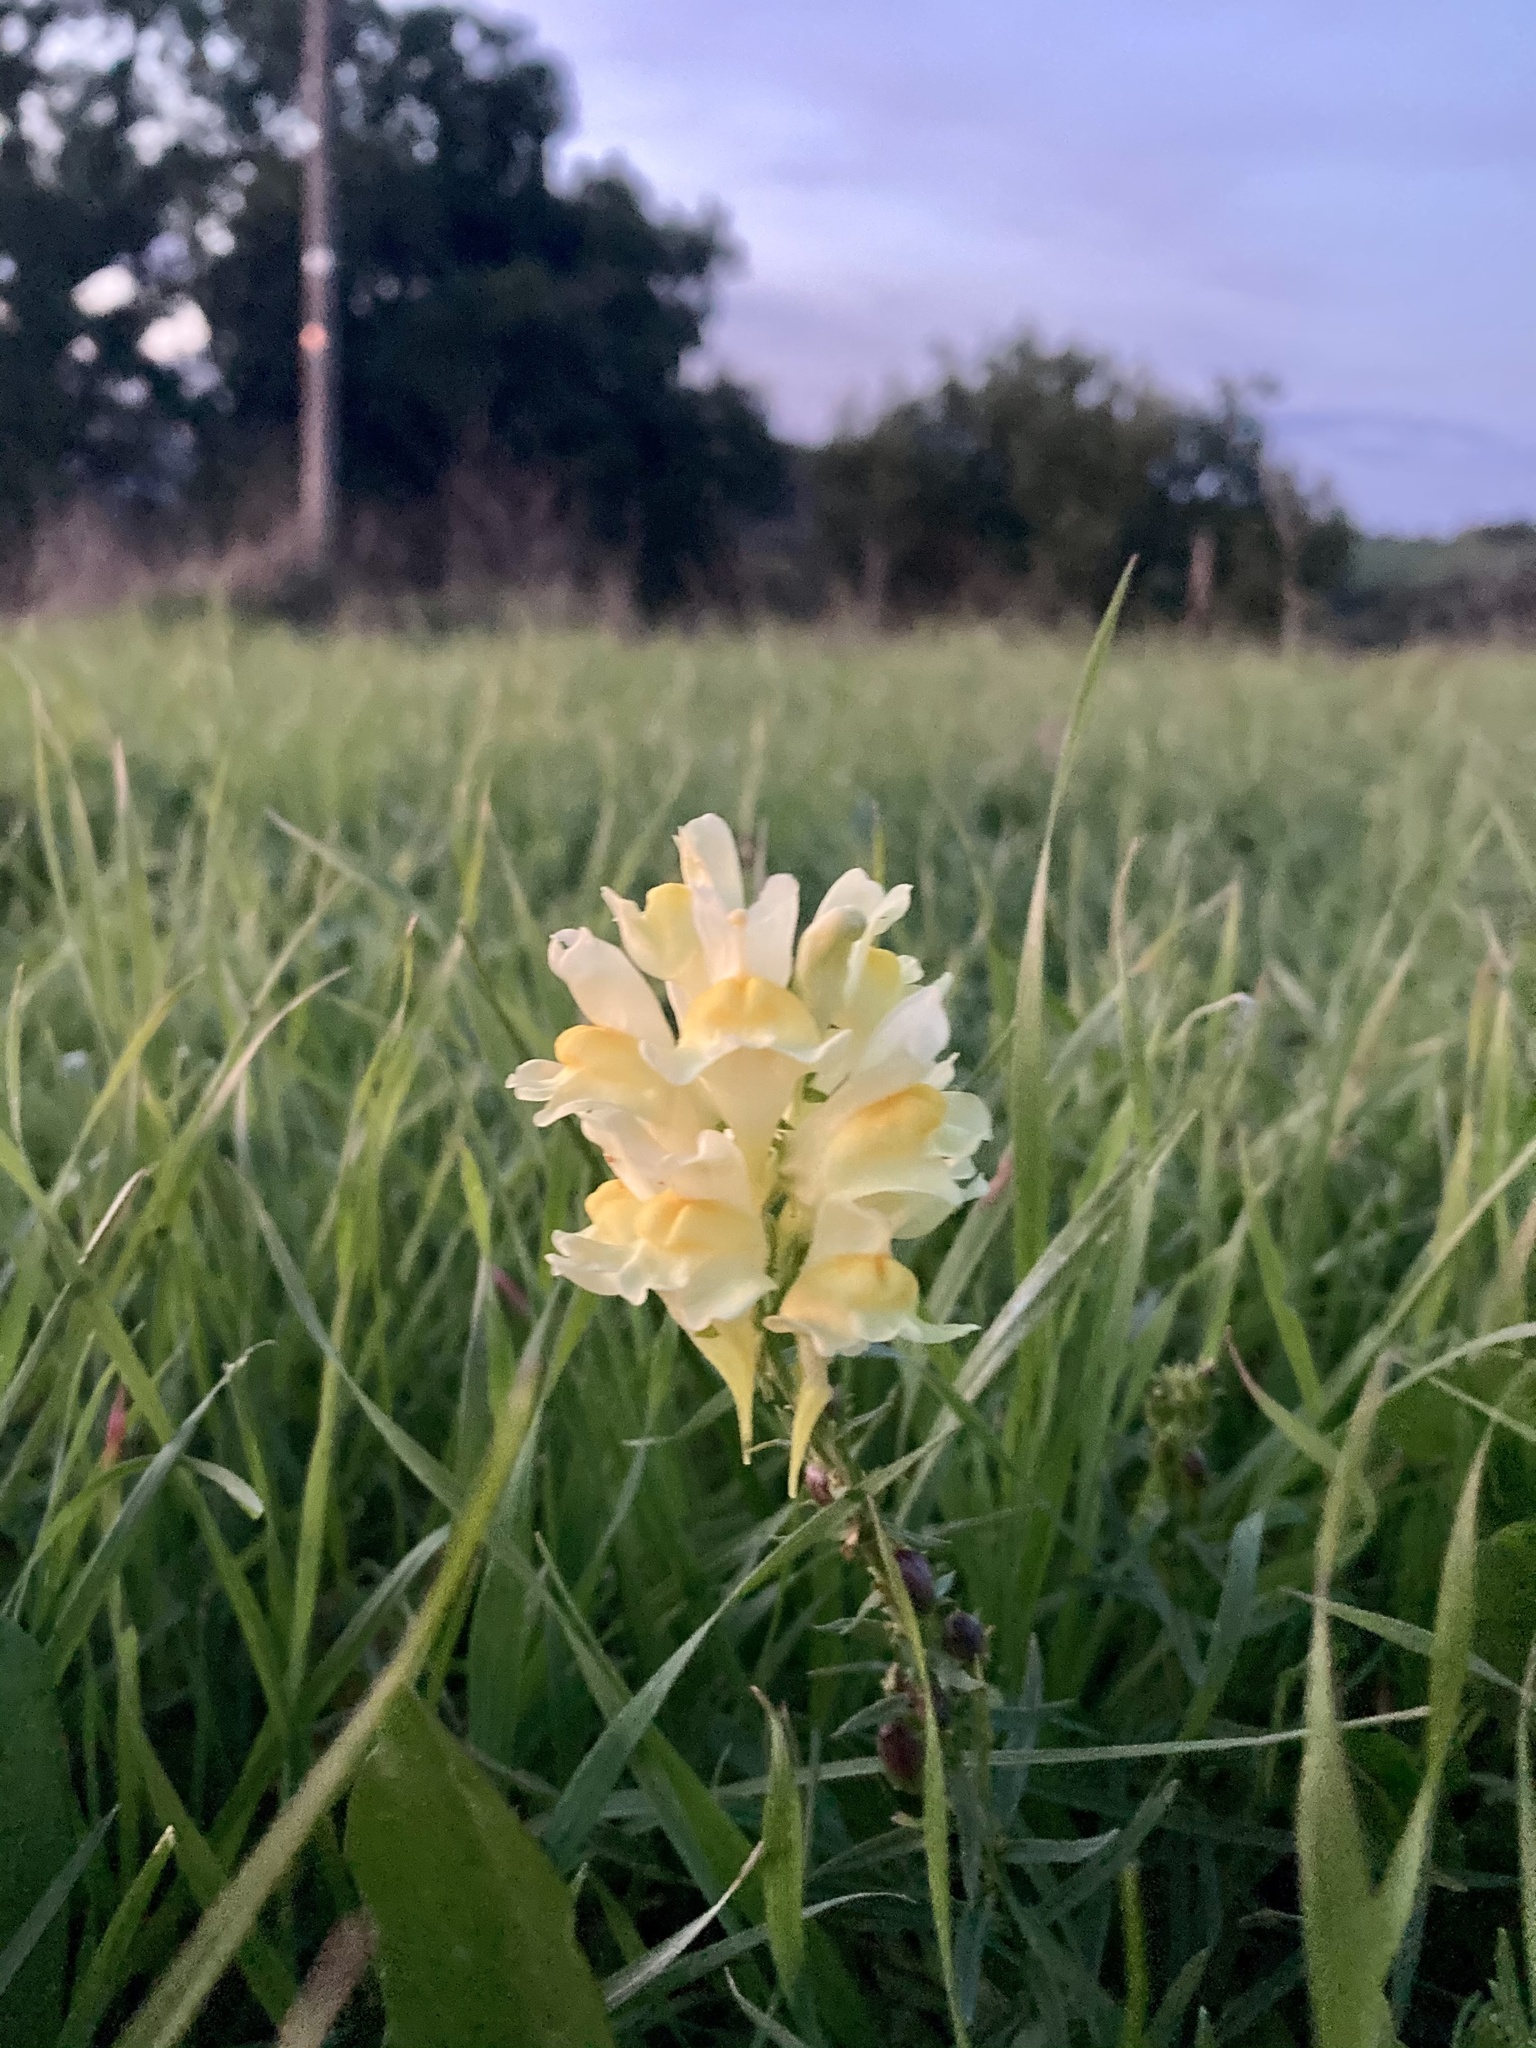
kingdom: Plantae
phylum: Tracheophyta
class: Magnoliopsida
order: Lamiales
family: Plantaginaceae
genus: Linaria
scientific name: Linaria vulgaris
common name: Butter and eggs
